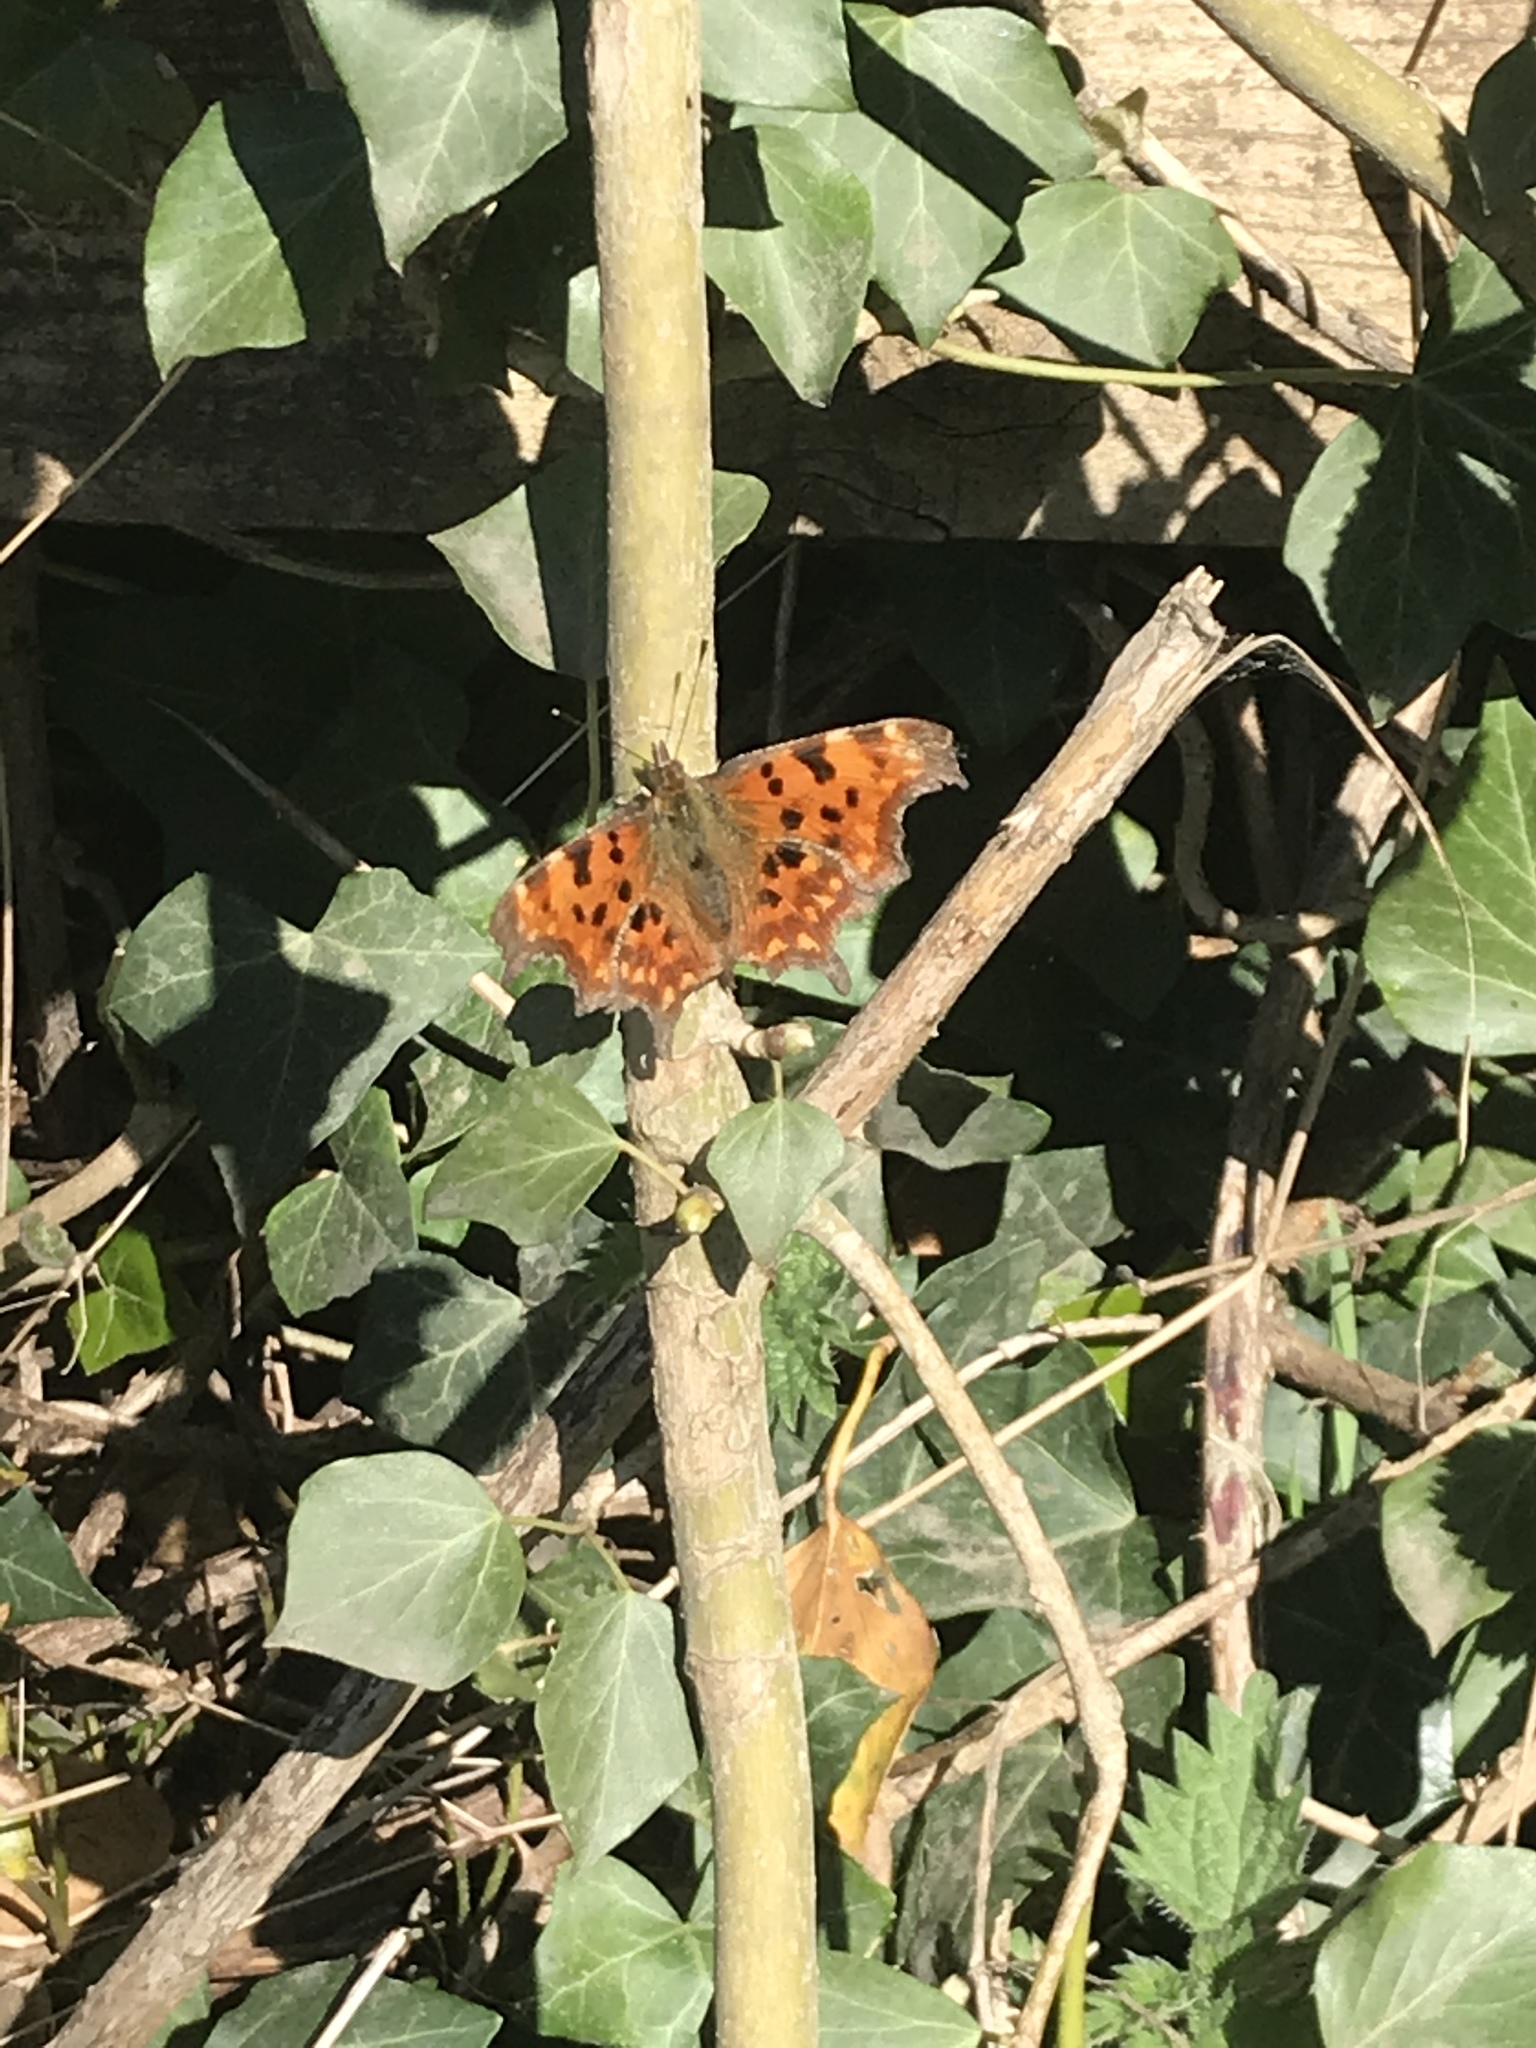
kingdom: Animalia
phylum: Arthropoda
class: Insecta
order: Lepidoptera
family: Nymphalidae
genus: Polygonia
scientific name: Polygonia c-album
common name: Comma
